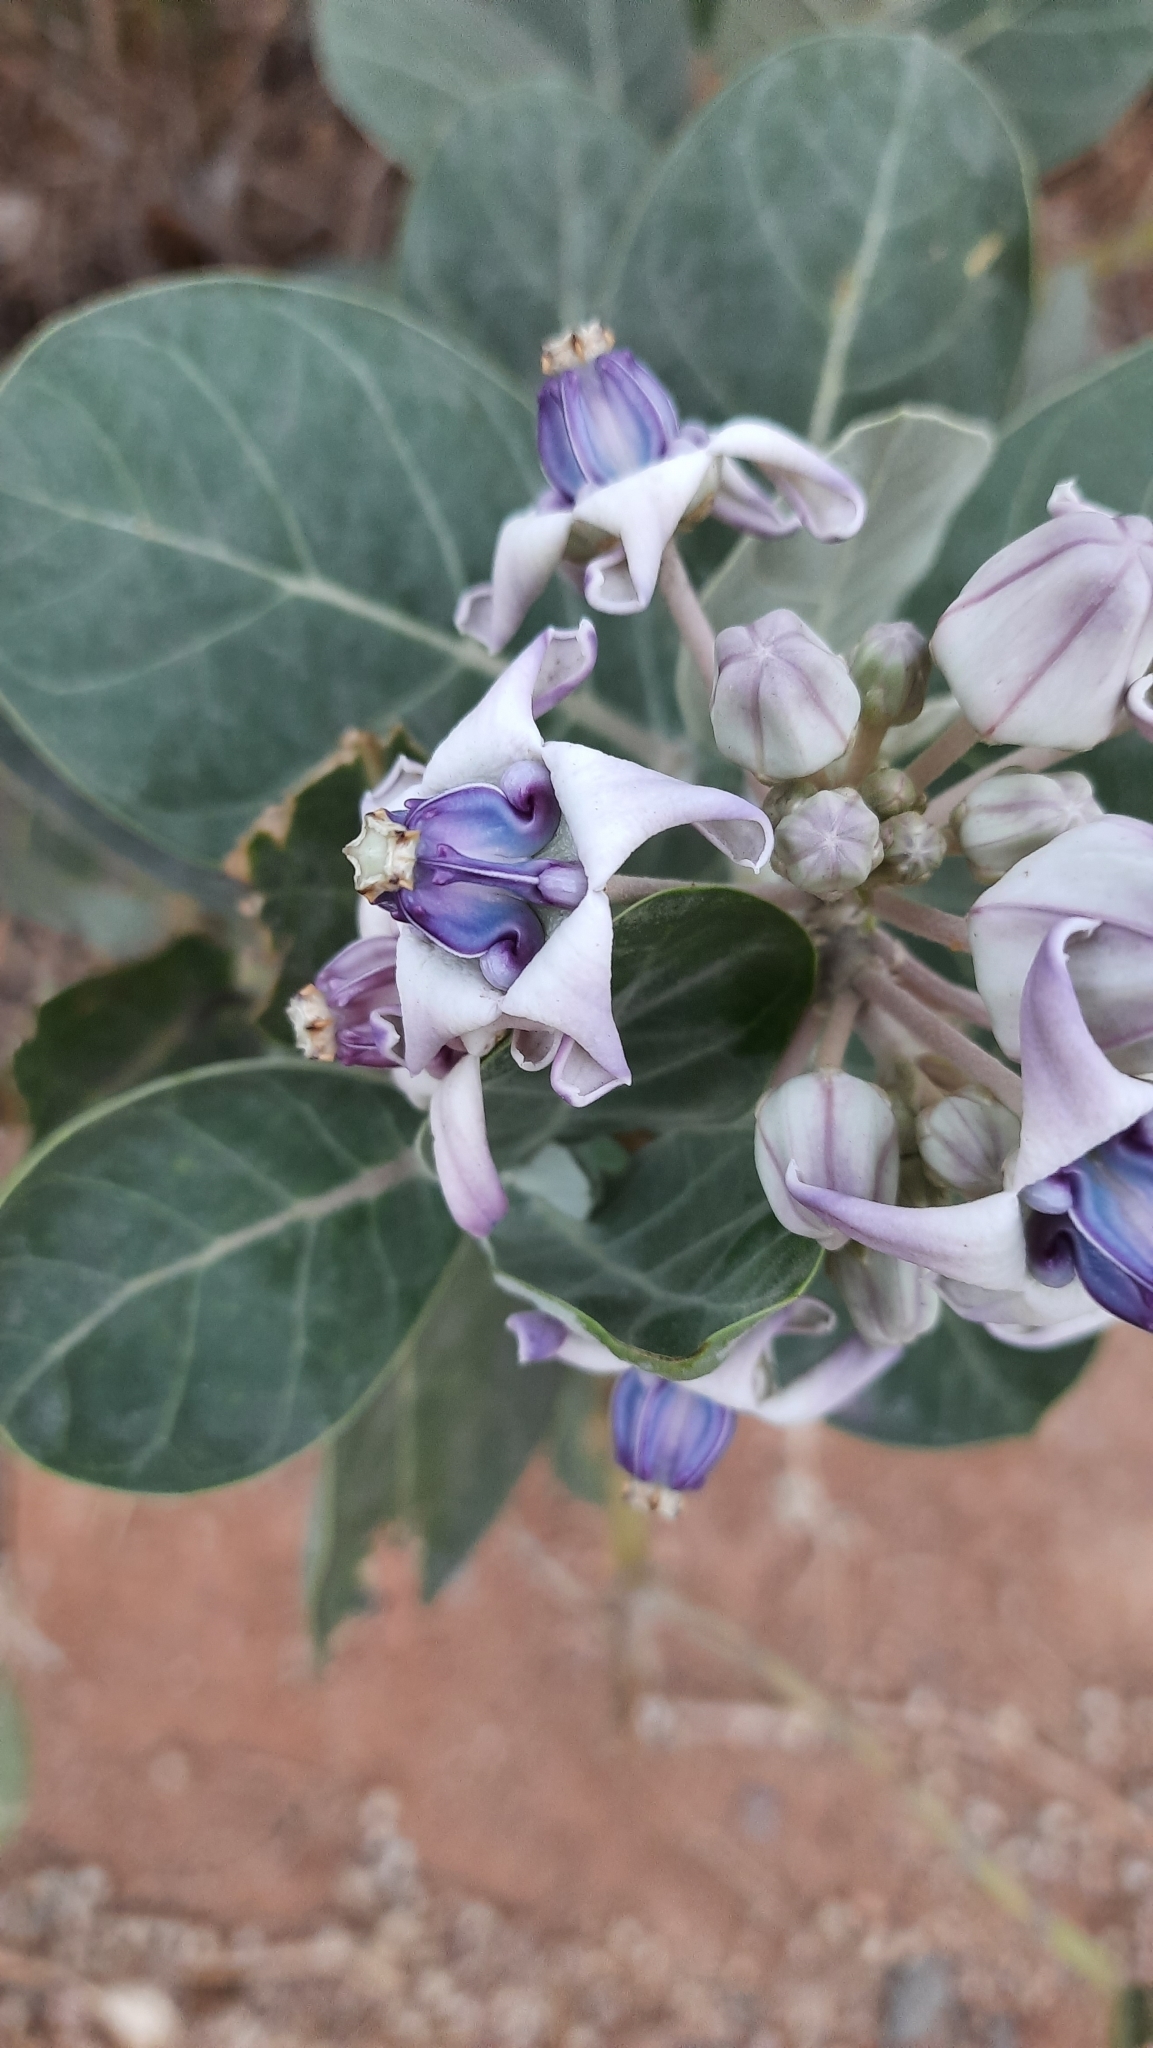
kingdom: Plantae
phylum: Tracheophyta
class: Magnoliopsida
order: Gentianales
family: Apocynaceae
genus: Calotropis
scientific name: Calotropis gigantea
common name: Crown flower
